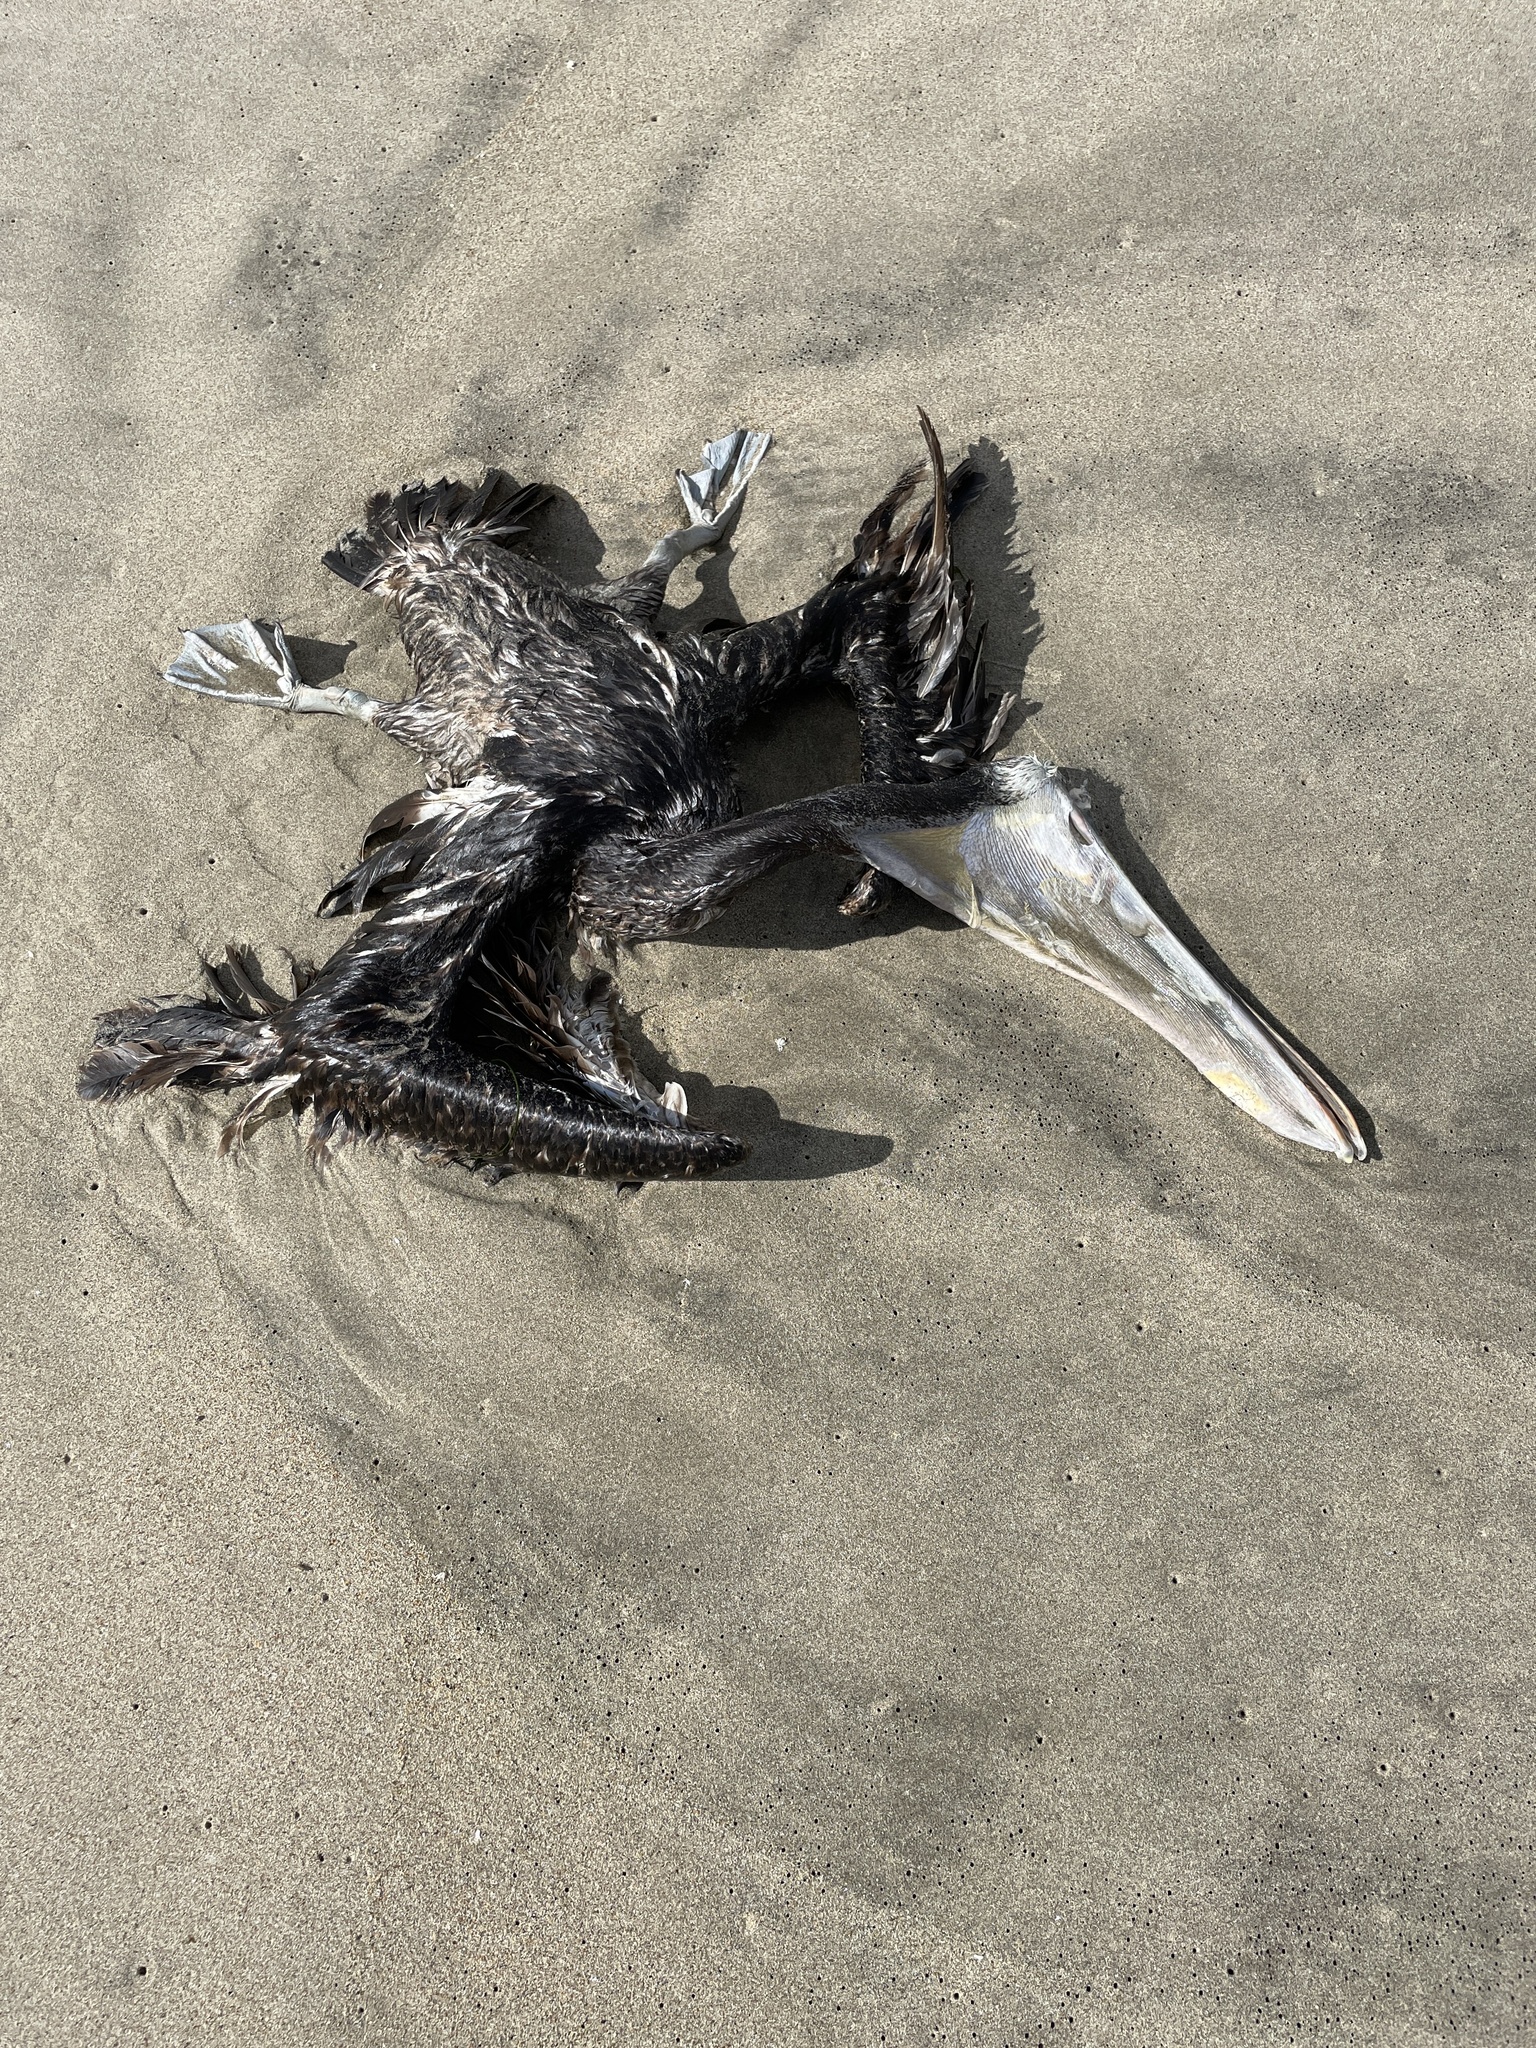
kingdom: Animalia
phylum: Chordata
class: Aves
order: Pelecaniformes
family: Pelecanidae
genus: Pelecanus
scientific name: Pelecanus occidentalis
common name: Brown pelican
